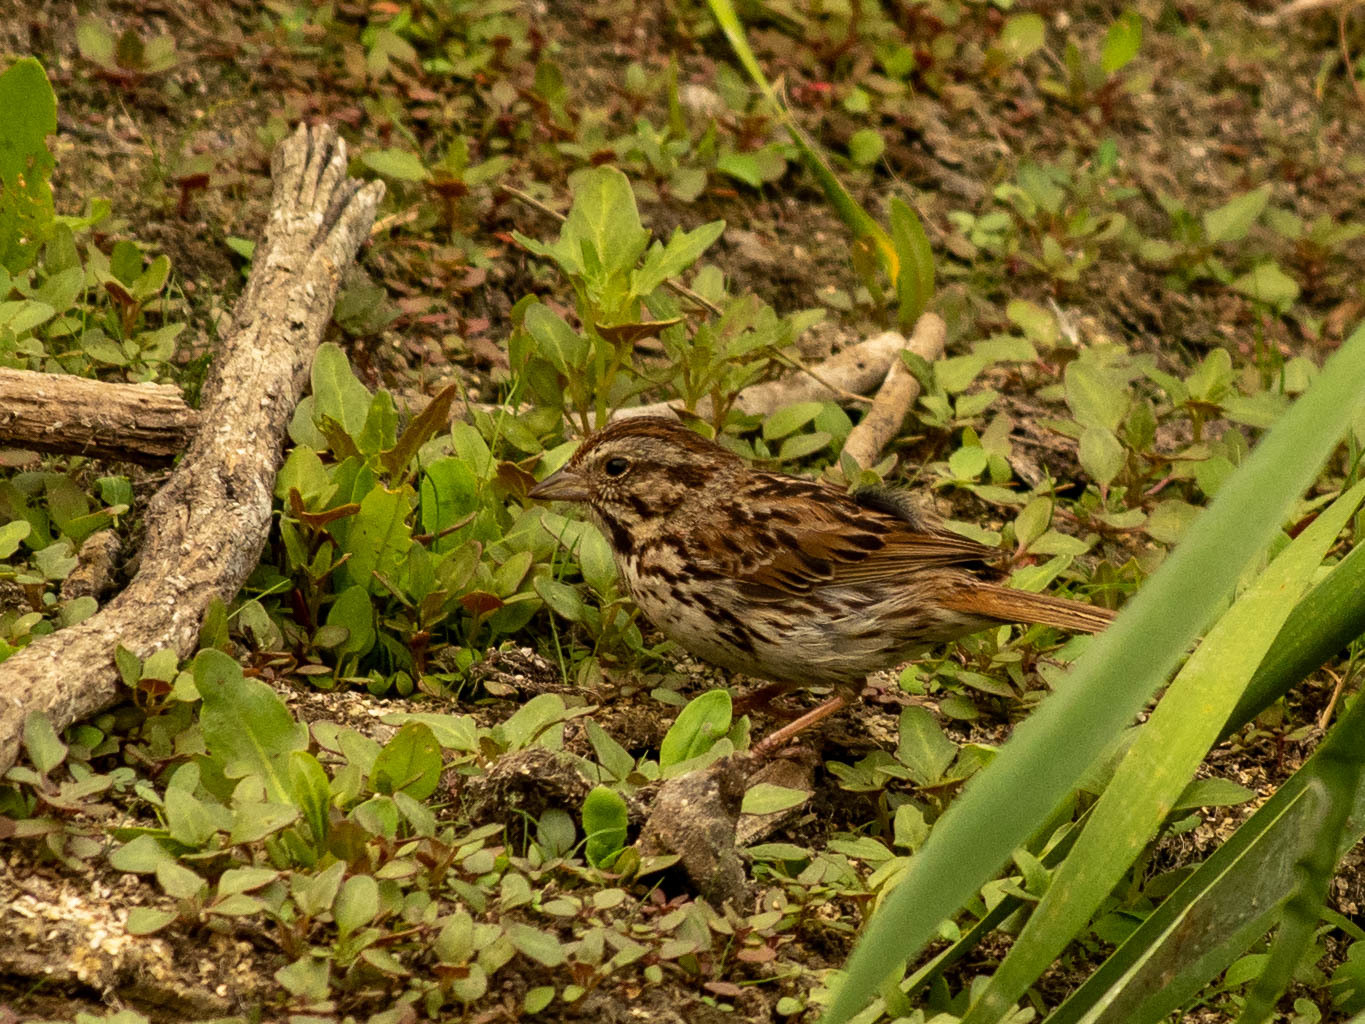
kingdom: Animalia
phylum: Chordata
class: Aves
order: Passeriformes
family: Passerellidae
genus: Melospiza
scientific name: Melospiza melodia
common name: Song sparrow
